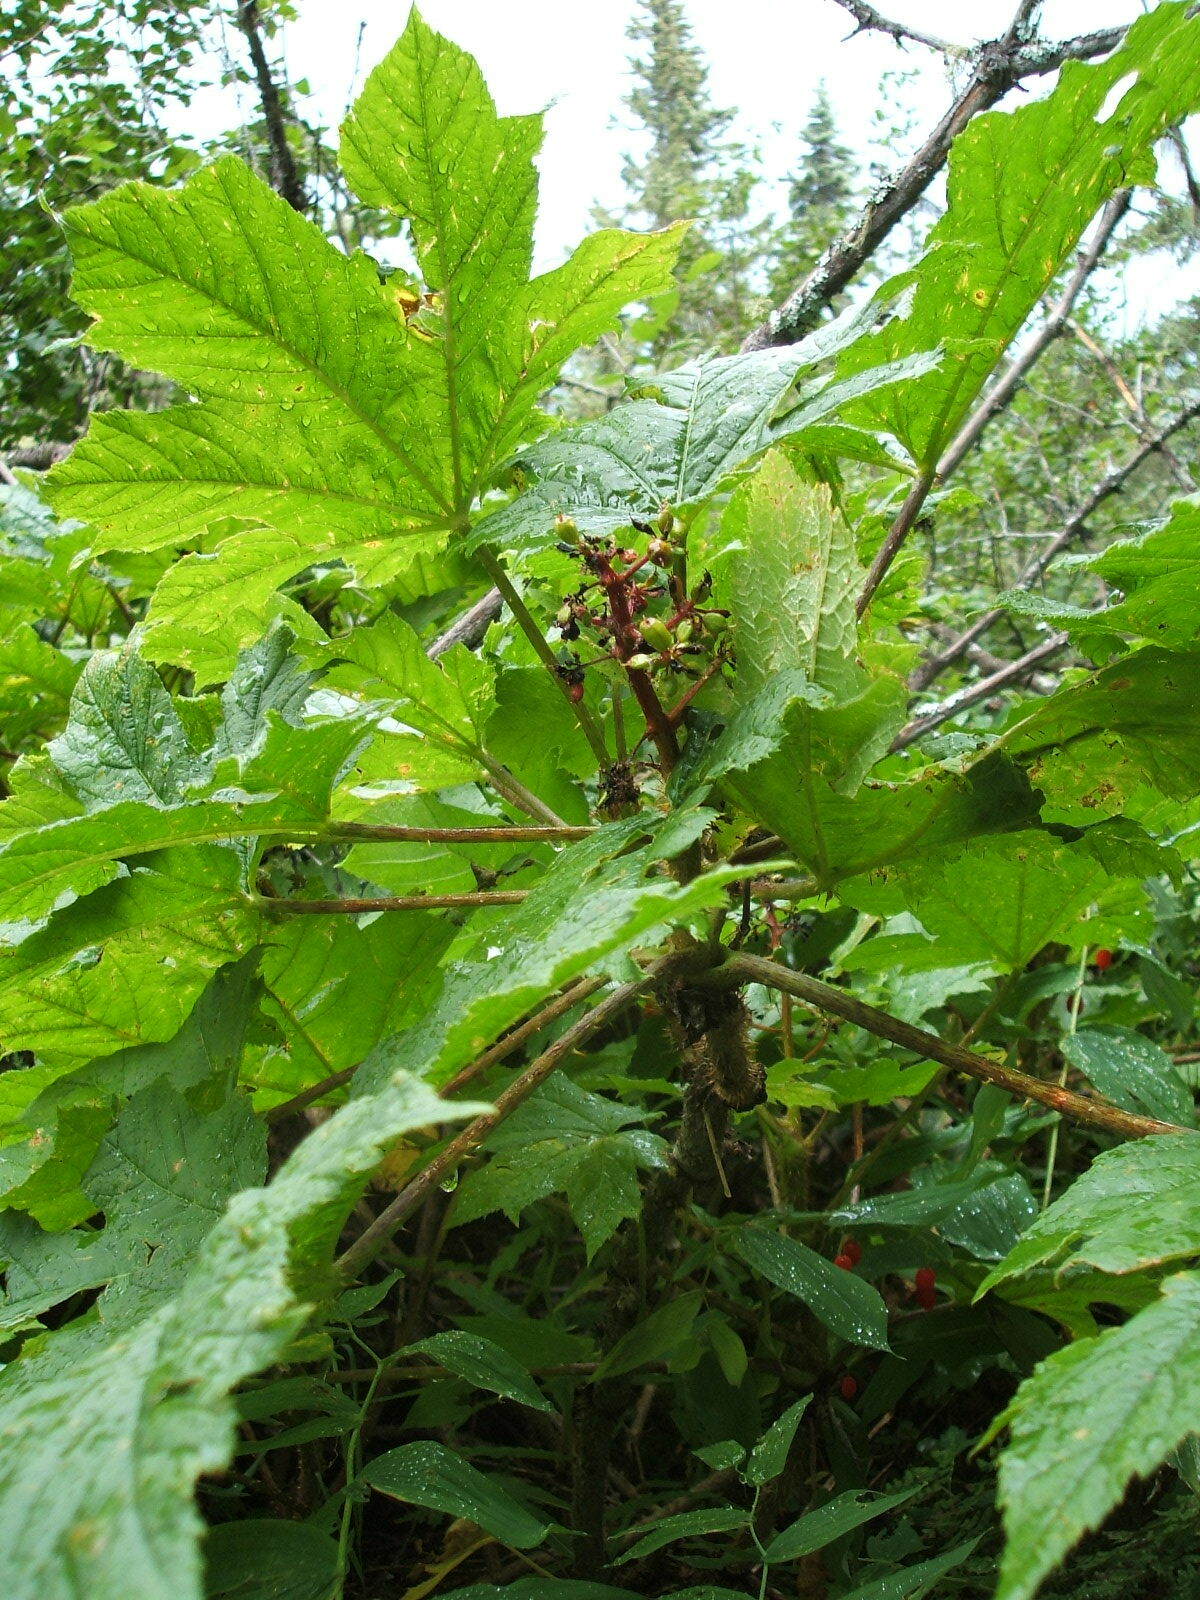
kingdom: Plantae
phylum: Tracheophyta
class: Magnoliopsida
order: Apiales
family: Araliaceae
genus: Oplopanax
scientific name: Oplopanax horridus
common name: Devil's walking-stick
